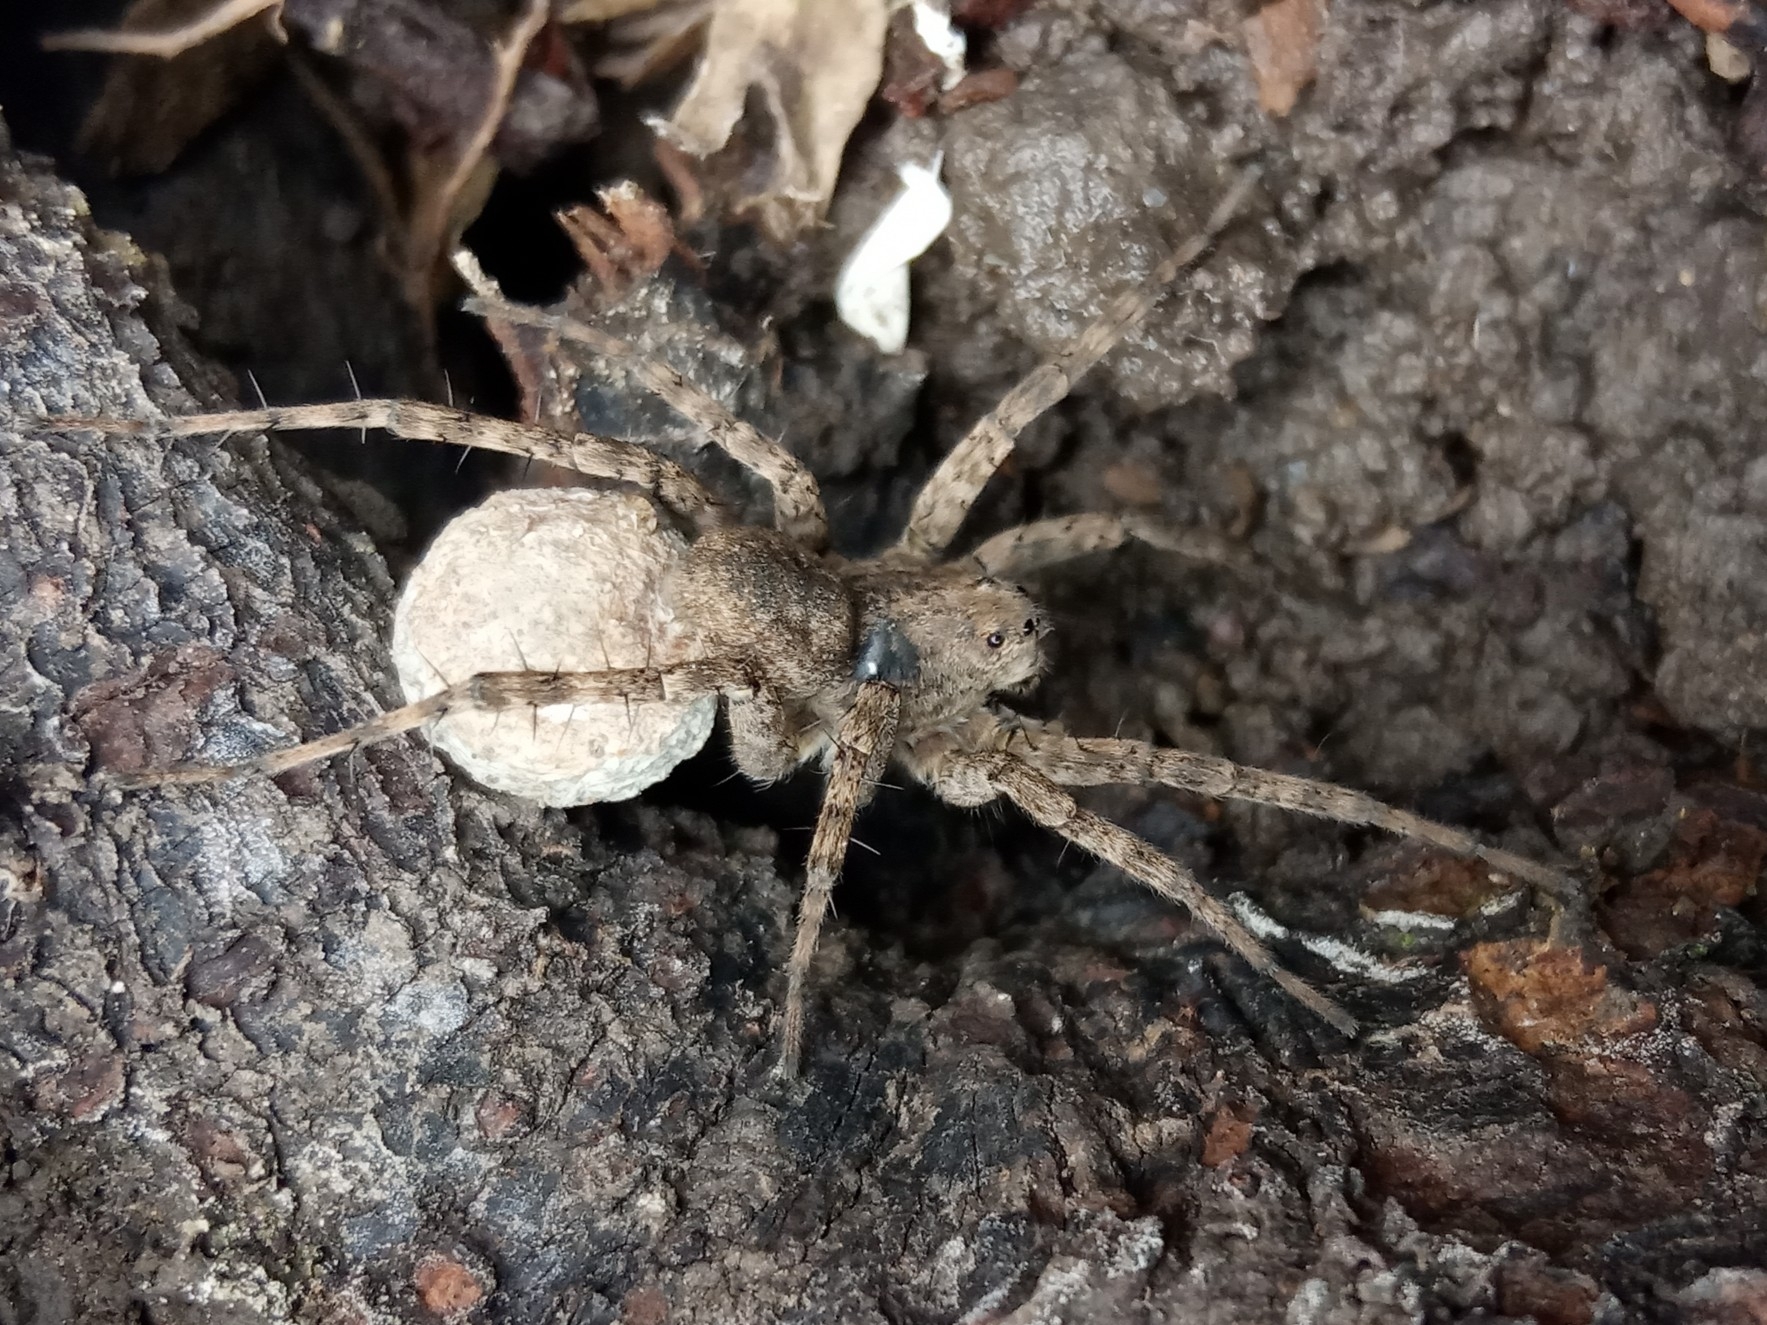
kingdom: Animalia
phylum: Arthropoda
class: Arachnida
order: Araneae
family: Lycosidae
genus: Pardosa
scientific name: Pardosa
